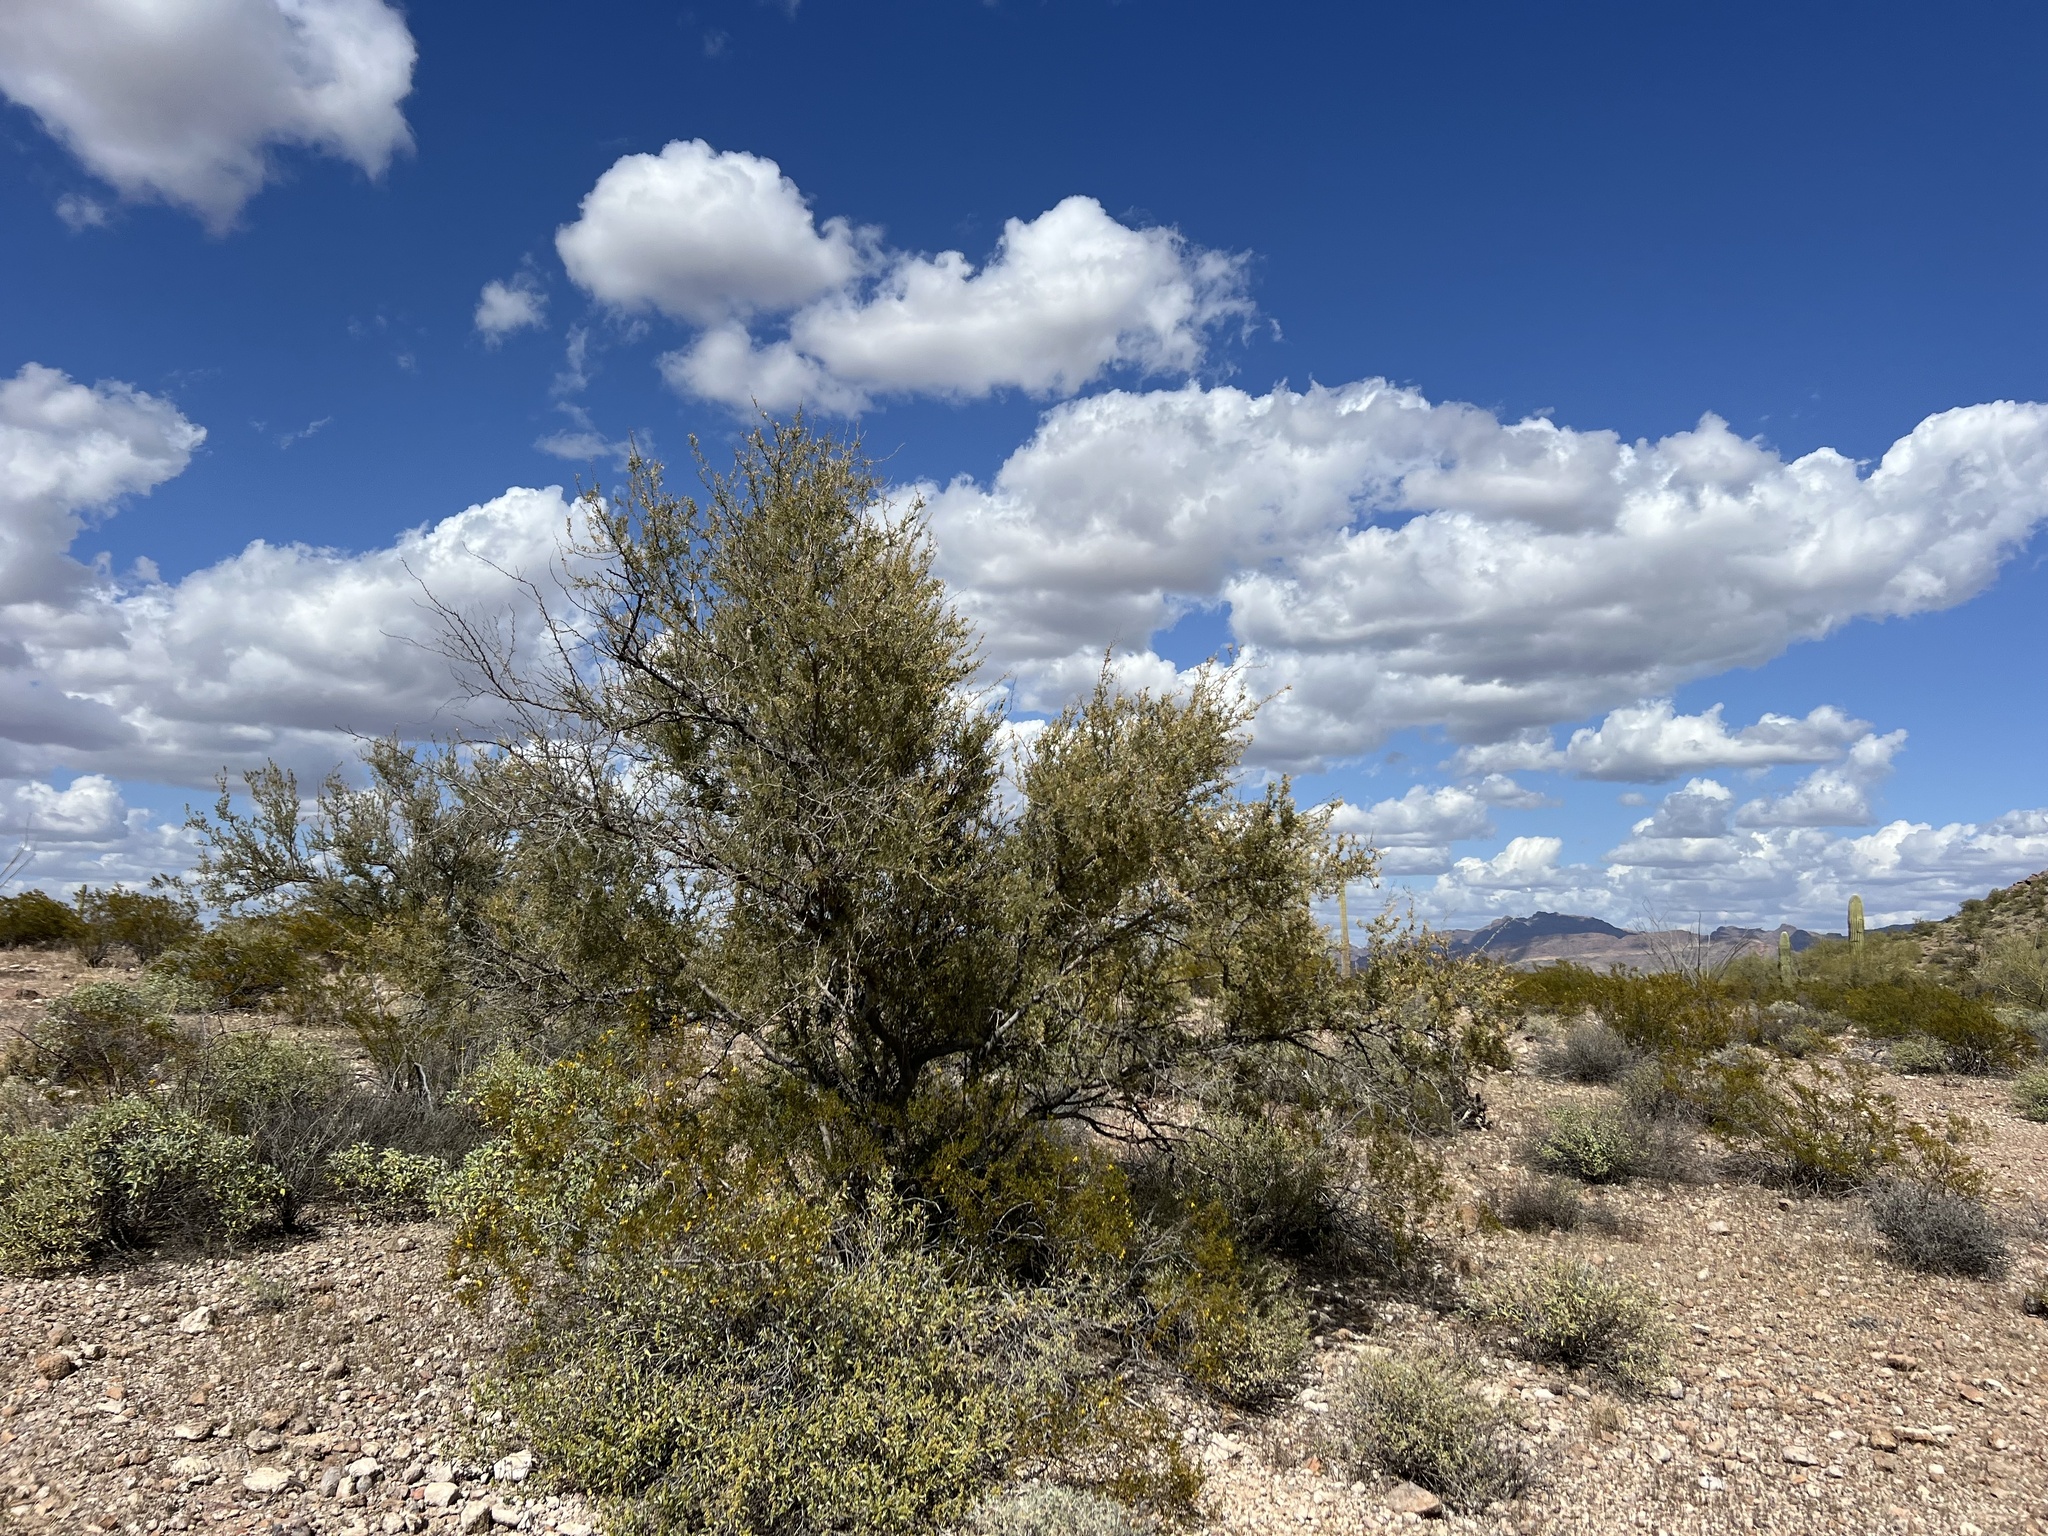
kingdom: Plantae
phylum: Tracheophyta
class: Magnoliopsida
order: Fabales
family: Fabaceae
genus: Olneya
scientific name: Olneya tesota
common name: Desert ironwood
